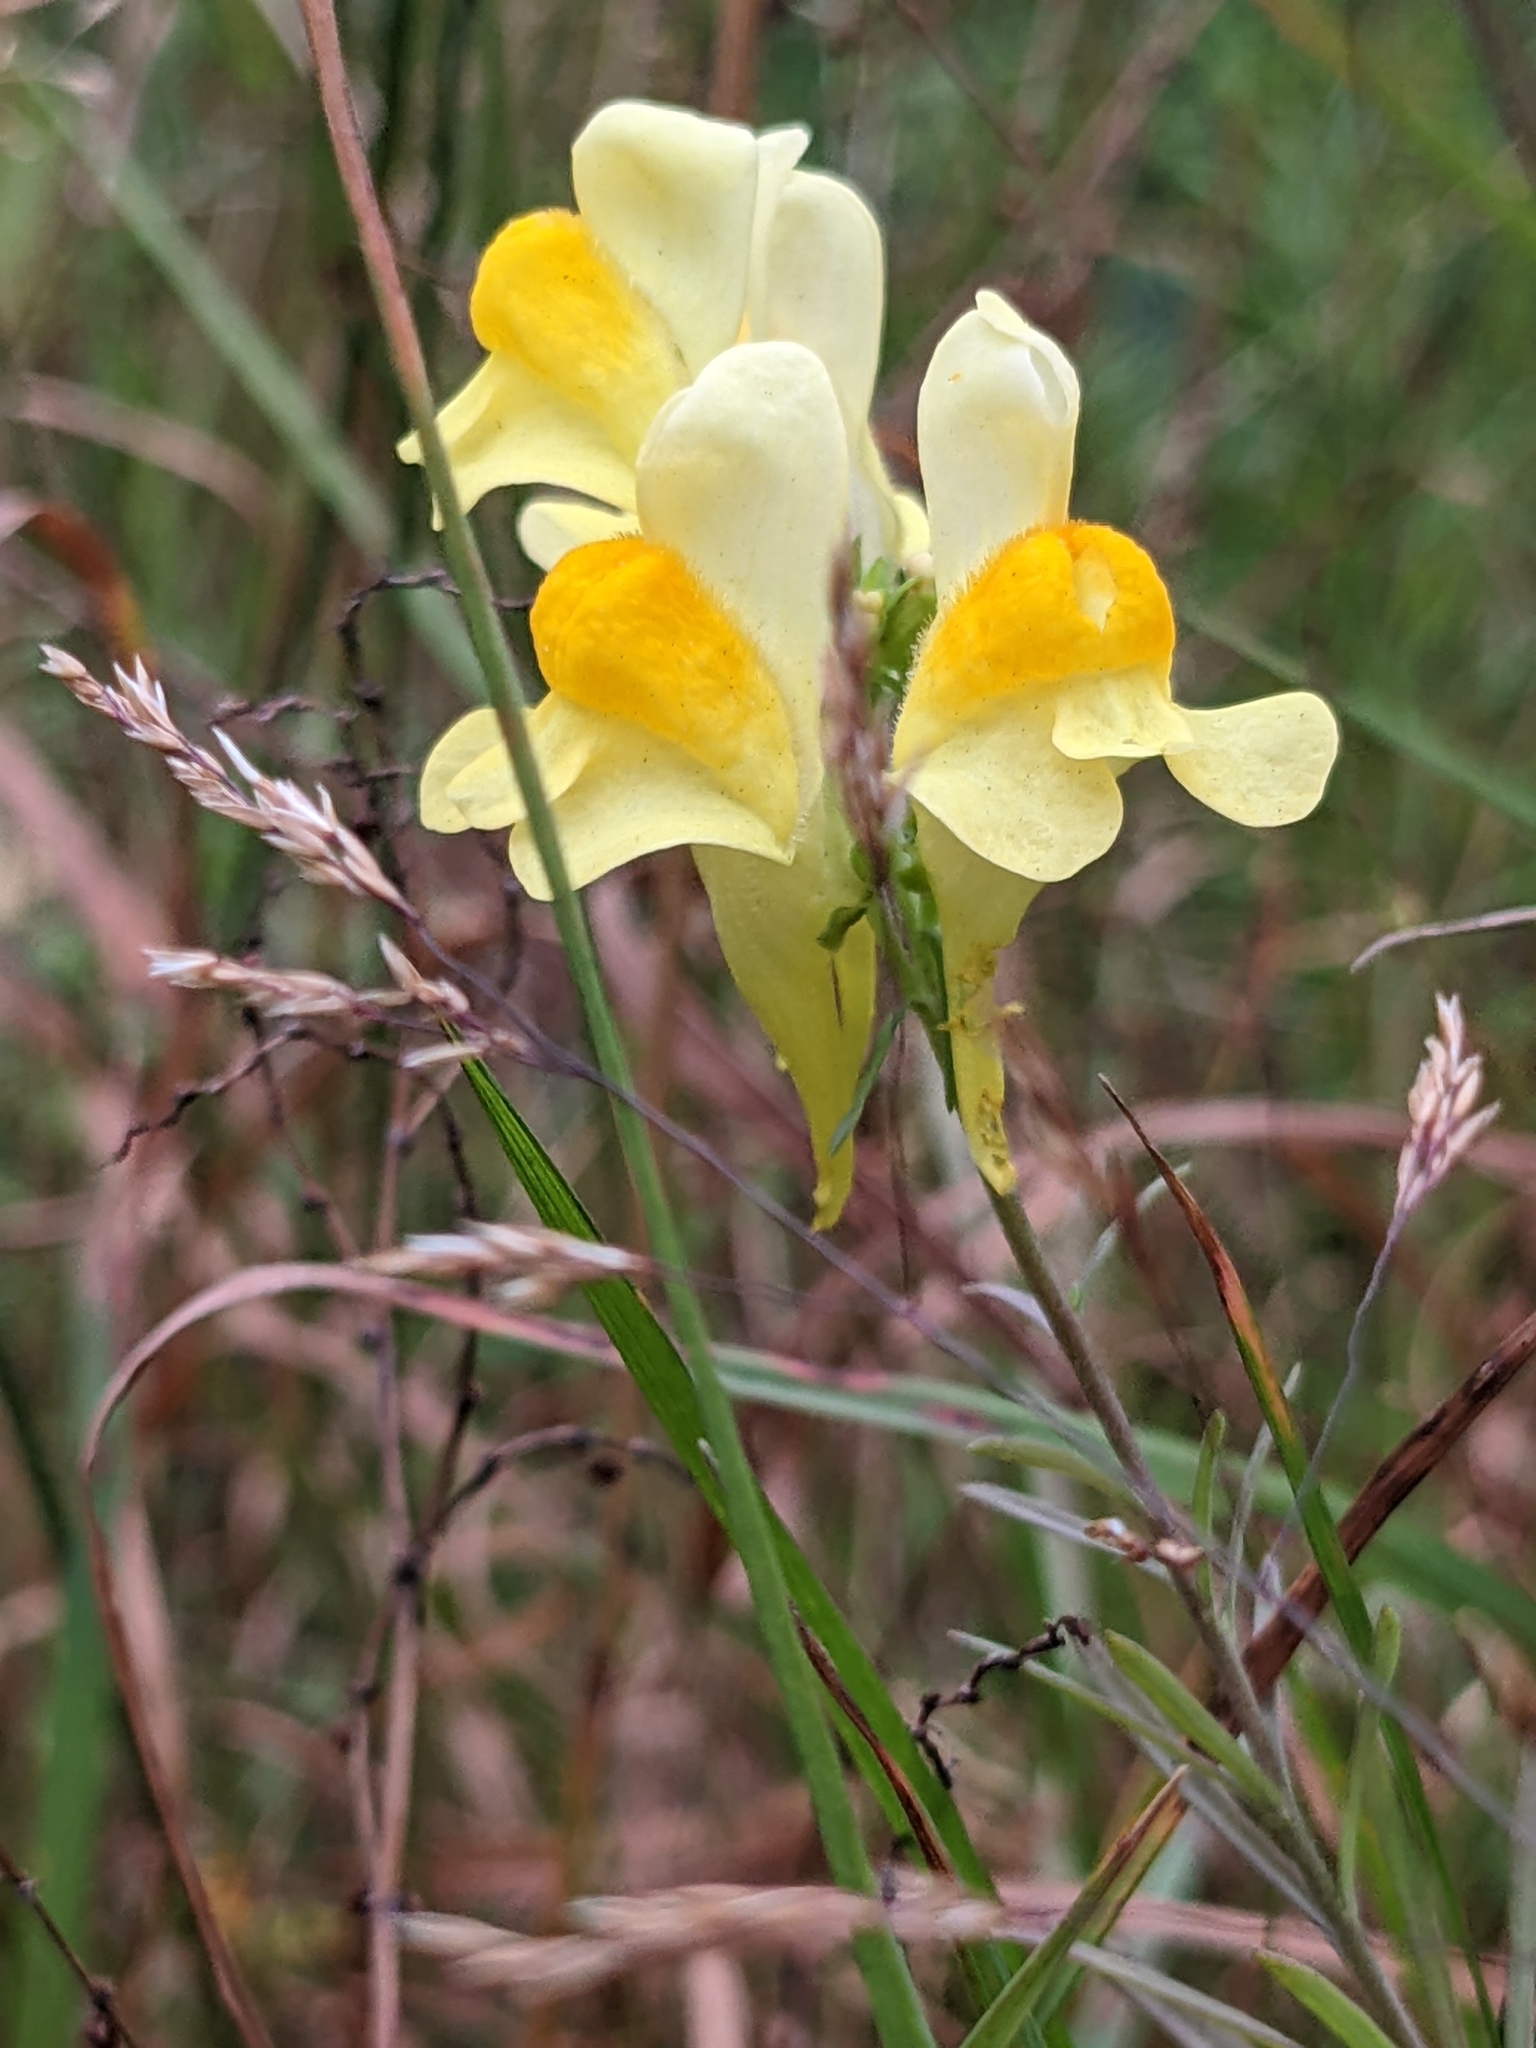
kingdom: Plantae
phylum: Tracheophyta
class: Magnoliopsida
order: Lamiales
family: Plantaginaceae
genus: Linaria
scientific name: Linaria vulgaris
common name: Butter and eggs
